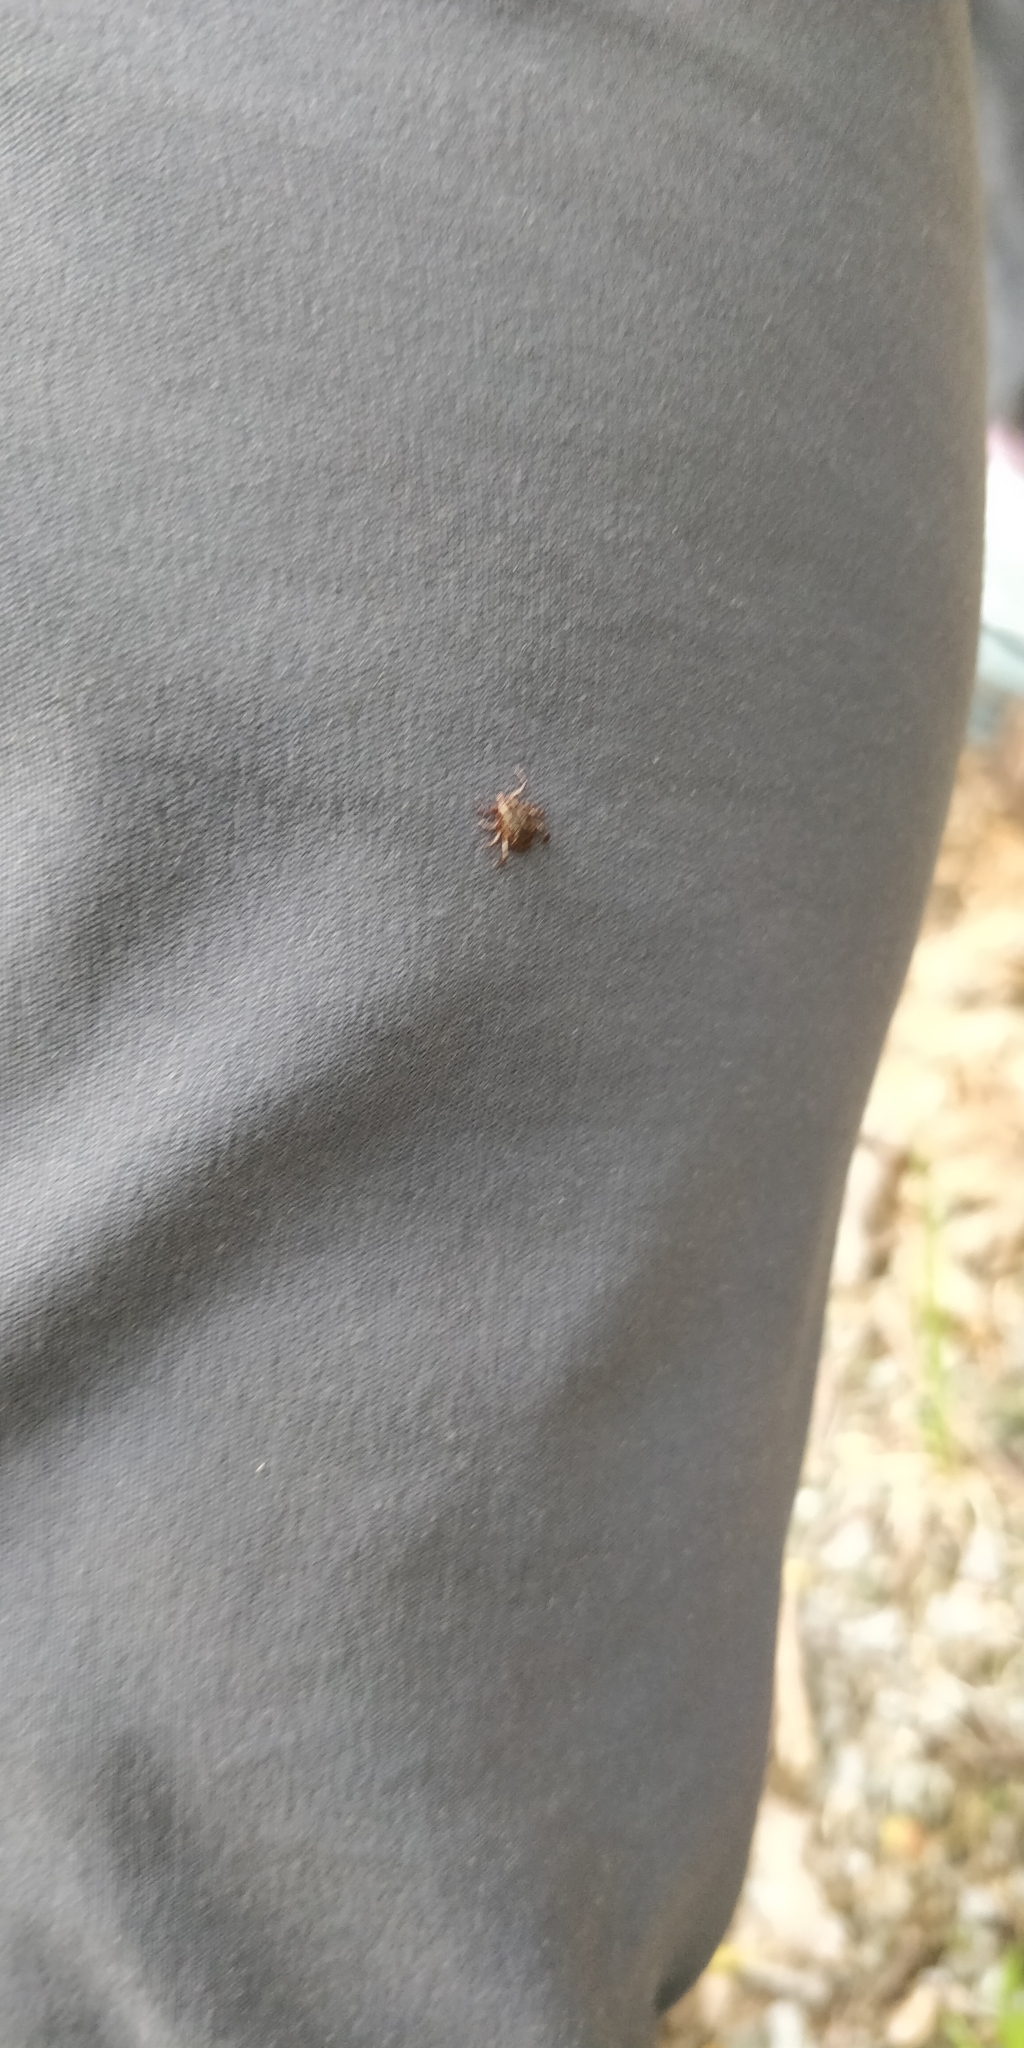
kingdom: Animalia
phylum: Arthropoda
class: Arachnida
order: Ixodida
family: Ixodidae
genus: Dermacentor
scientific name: Dermacentor variabilis
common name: American dog tick
